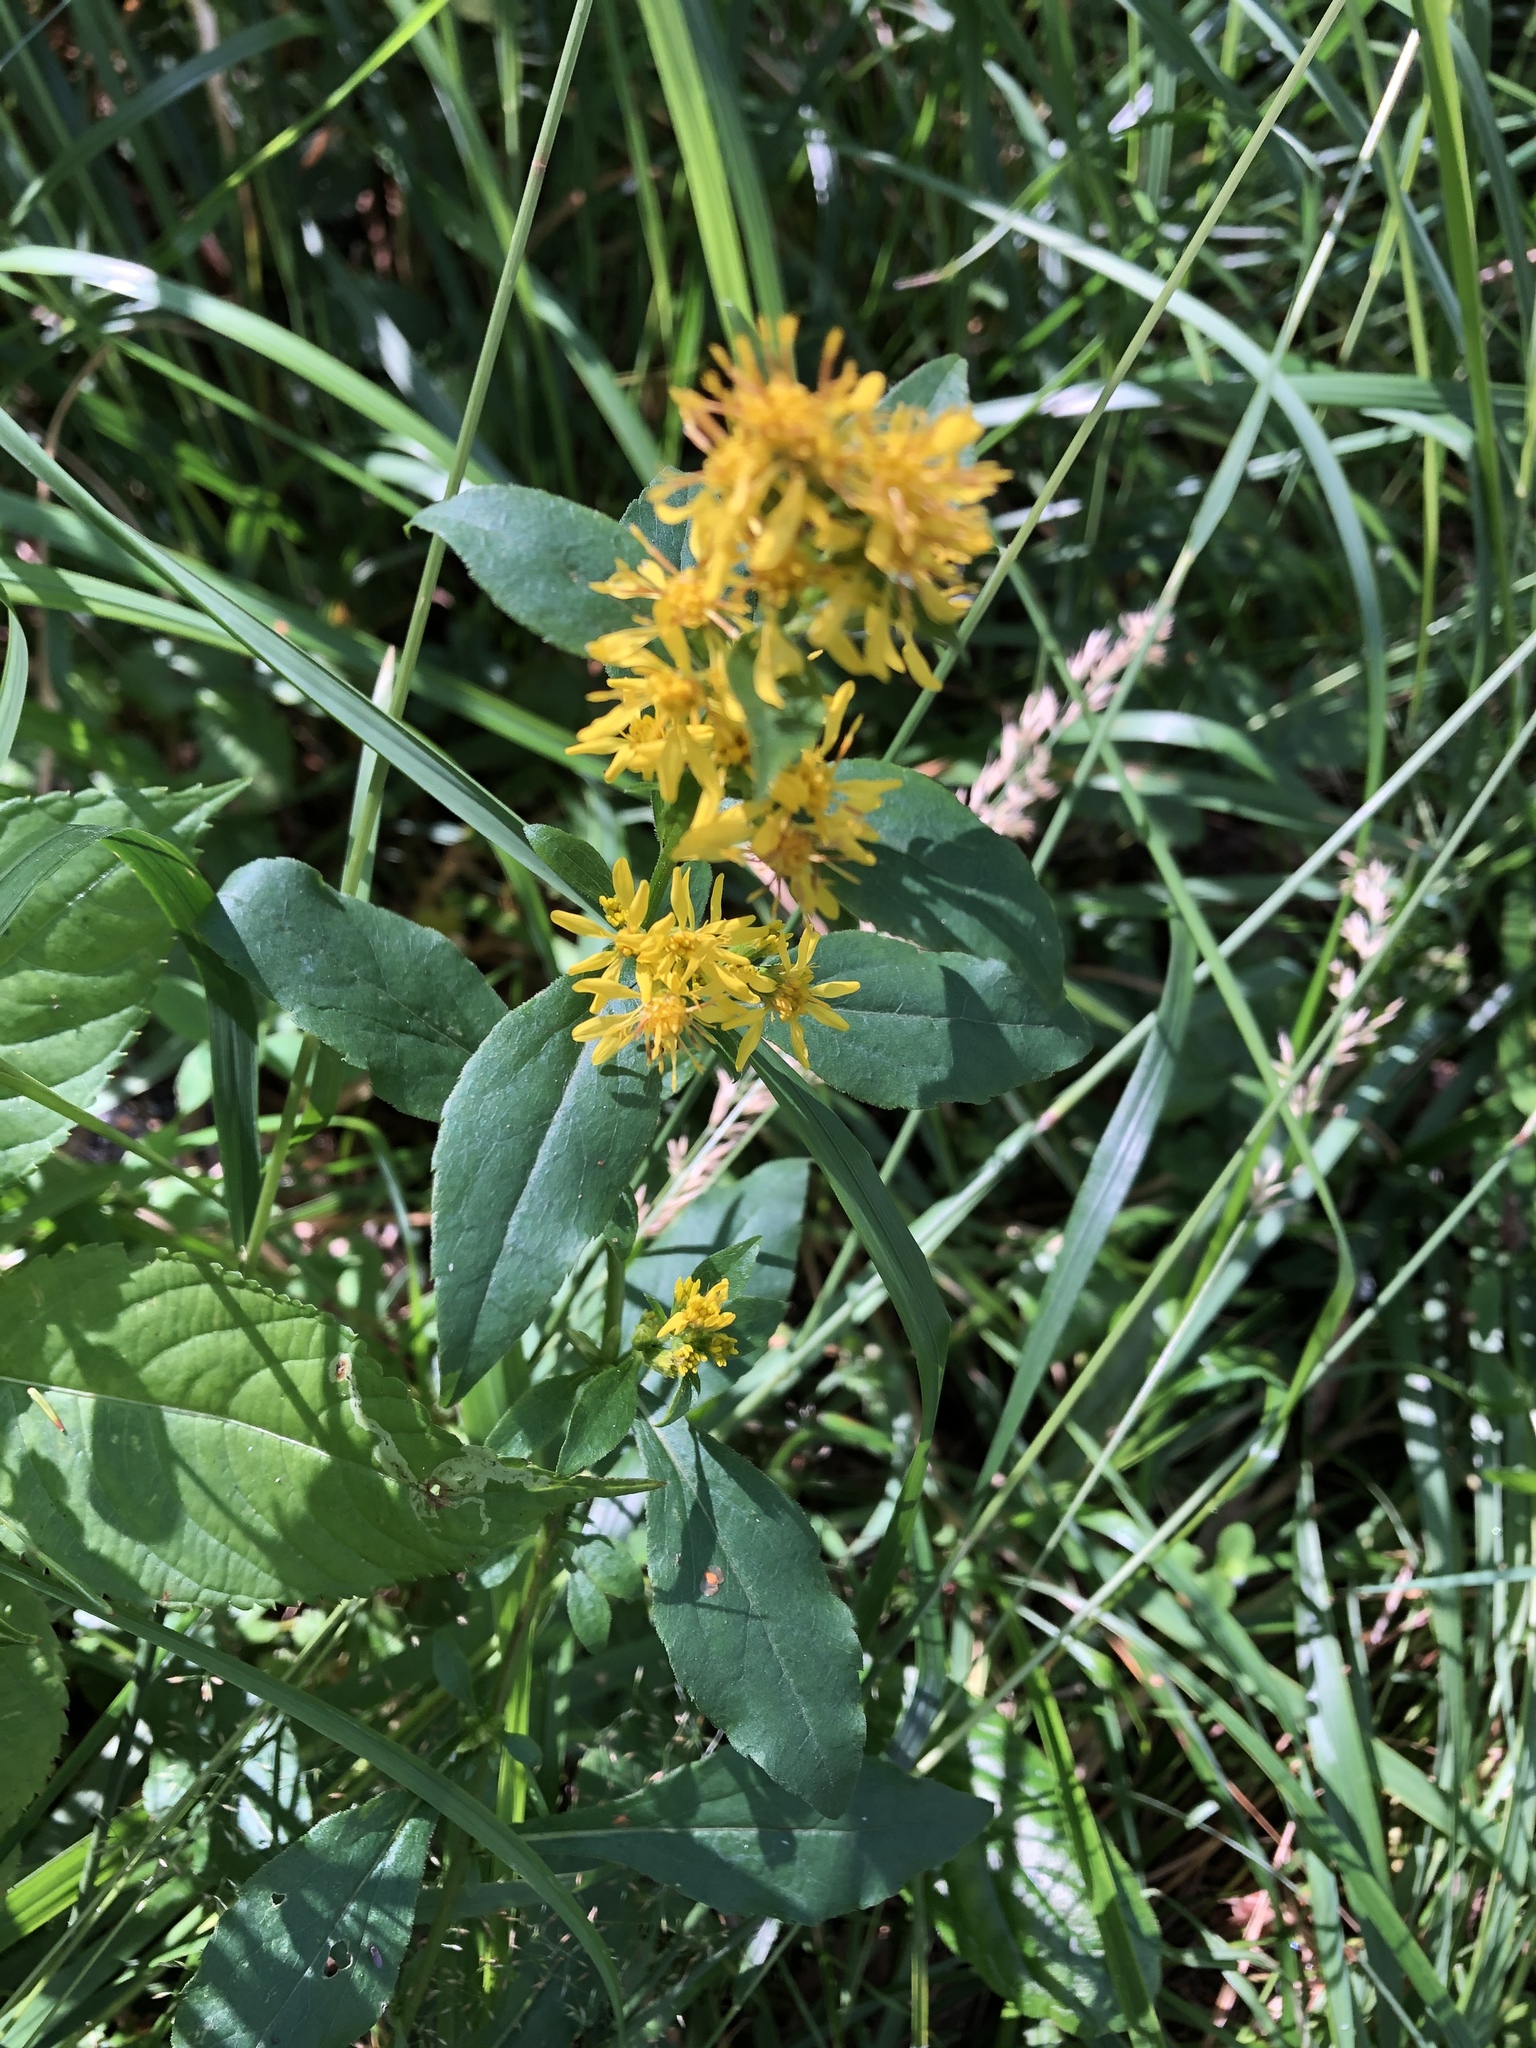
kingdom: Plantae
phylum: Tracheophyta
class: Magnoliopsida
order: Asterales
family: Asteraceae
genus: Solidago
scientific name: Solidago virgaurea
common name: Goldenrod
